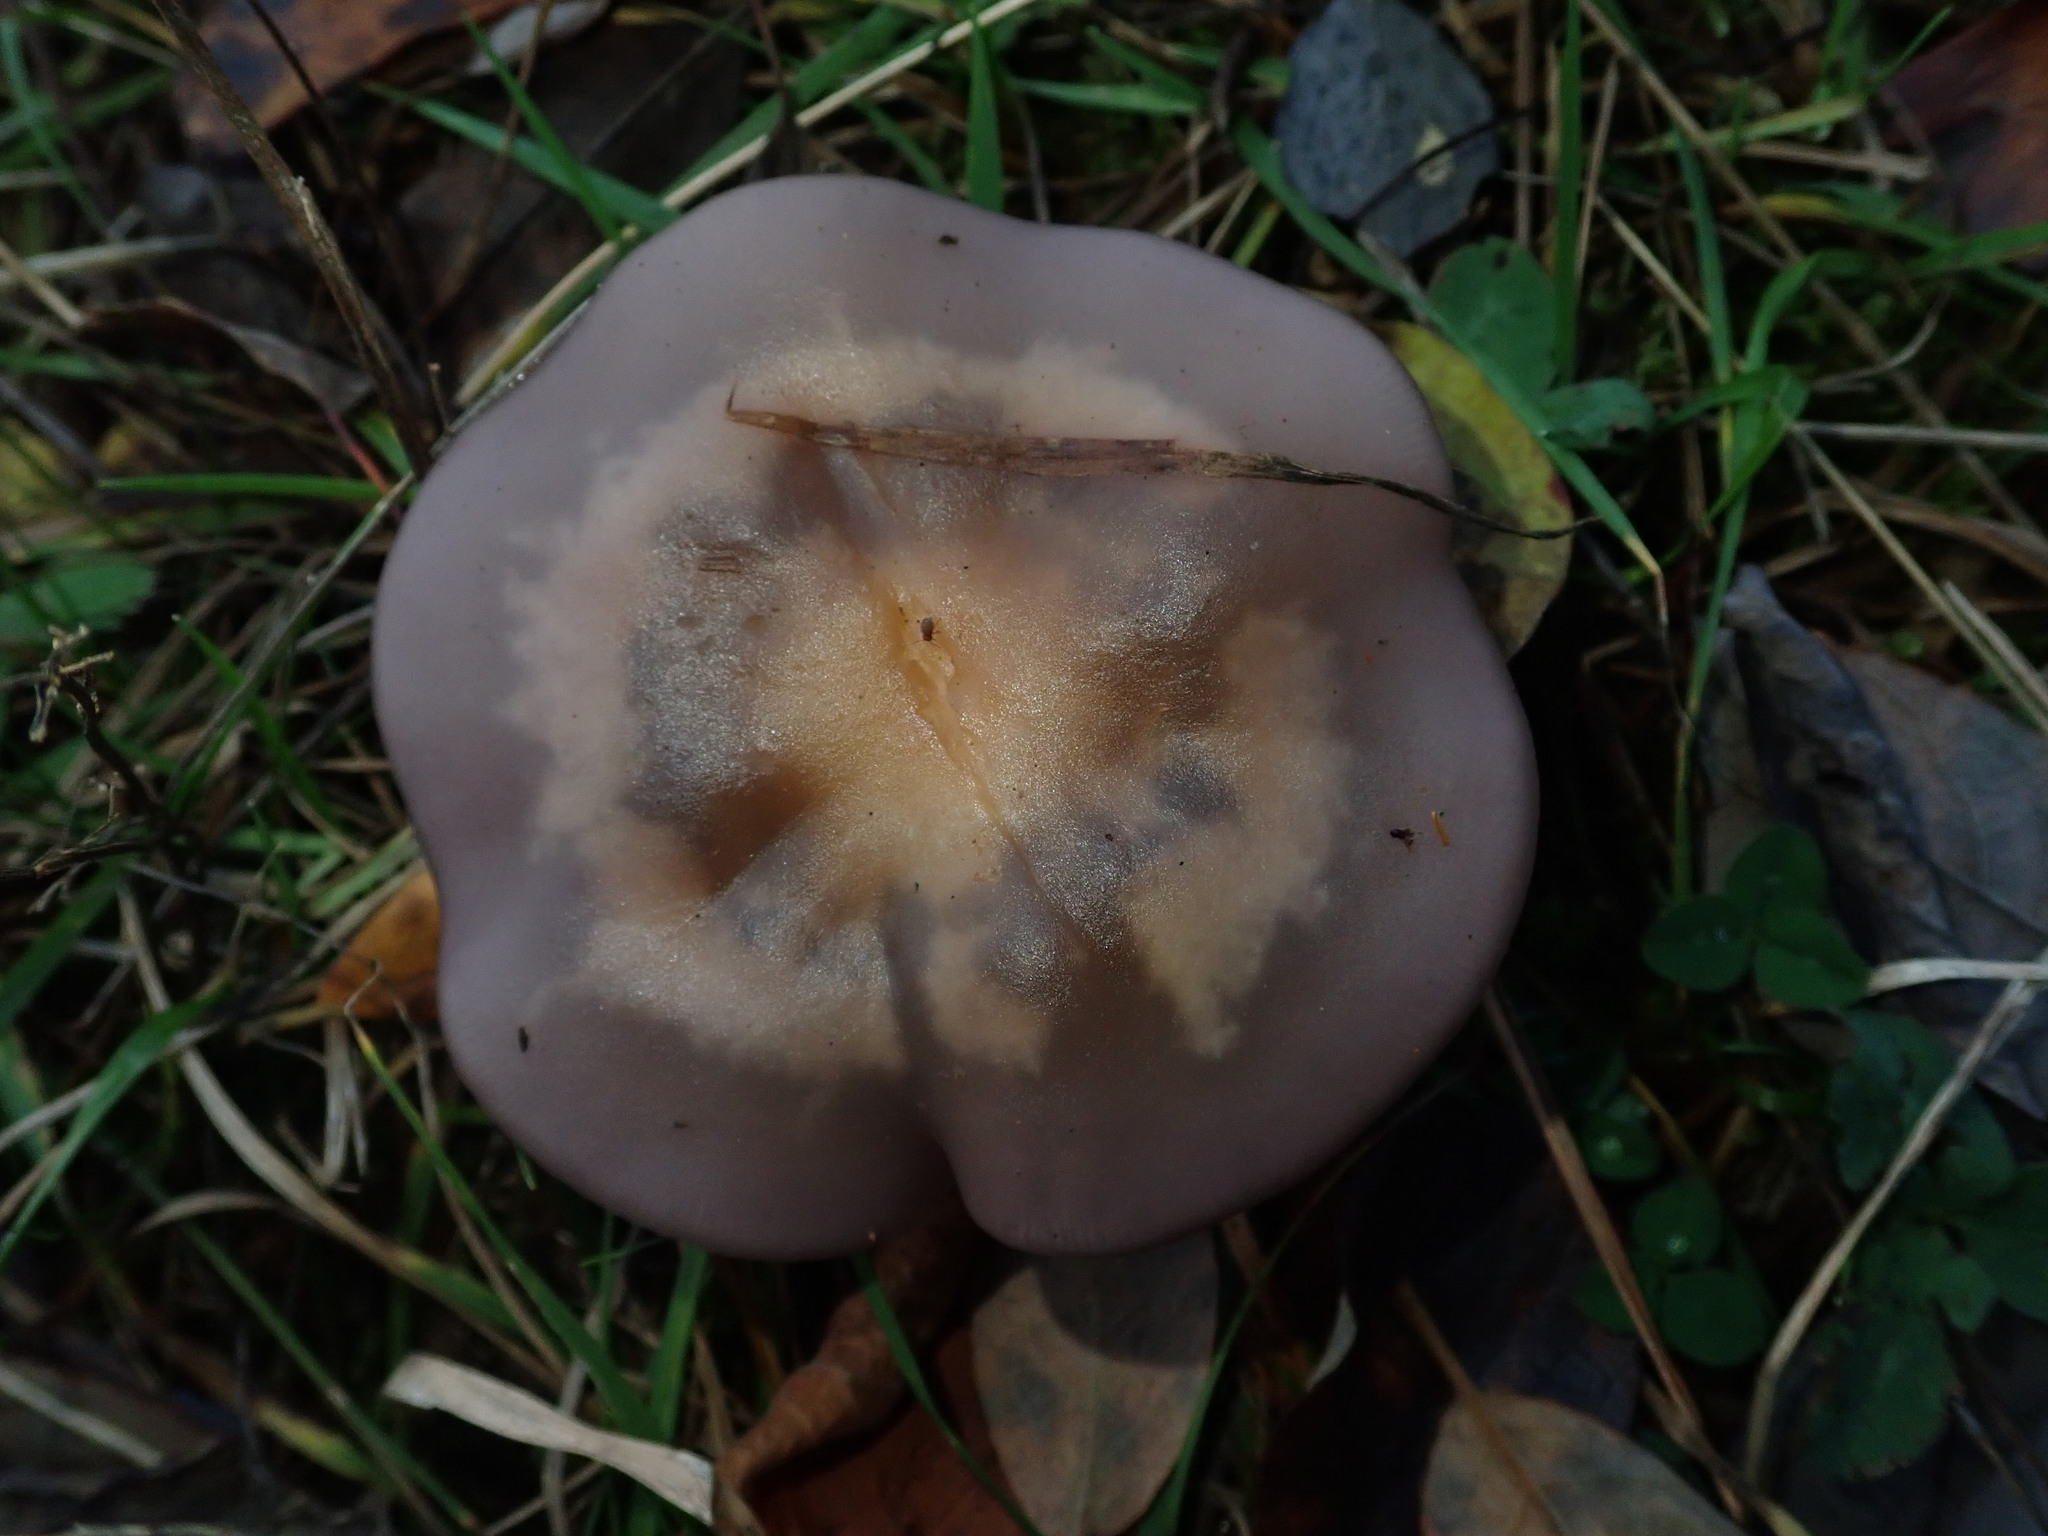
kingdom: Fungi
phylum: Basidiomycota
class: Agaricomycetes
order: Agaricales
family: Tricholomataceae
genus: Collybia
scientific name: Collybia
